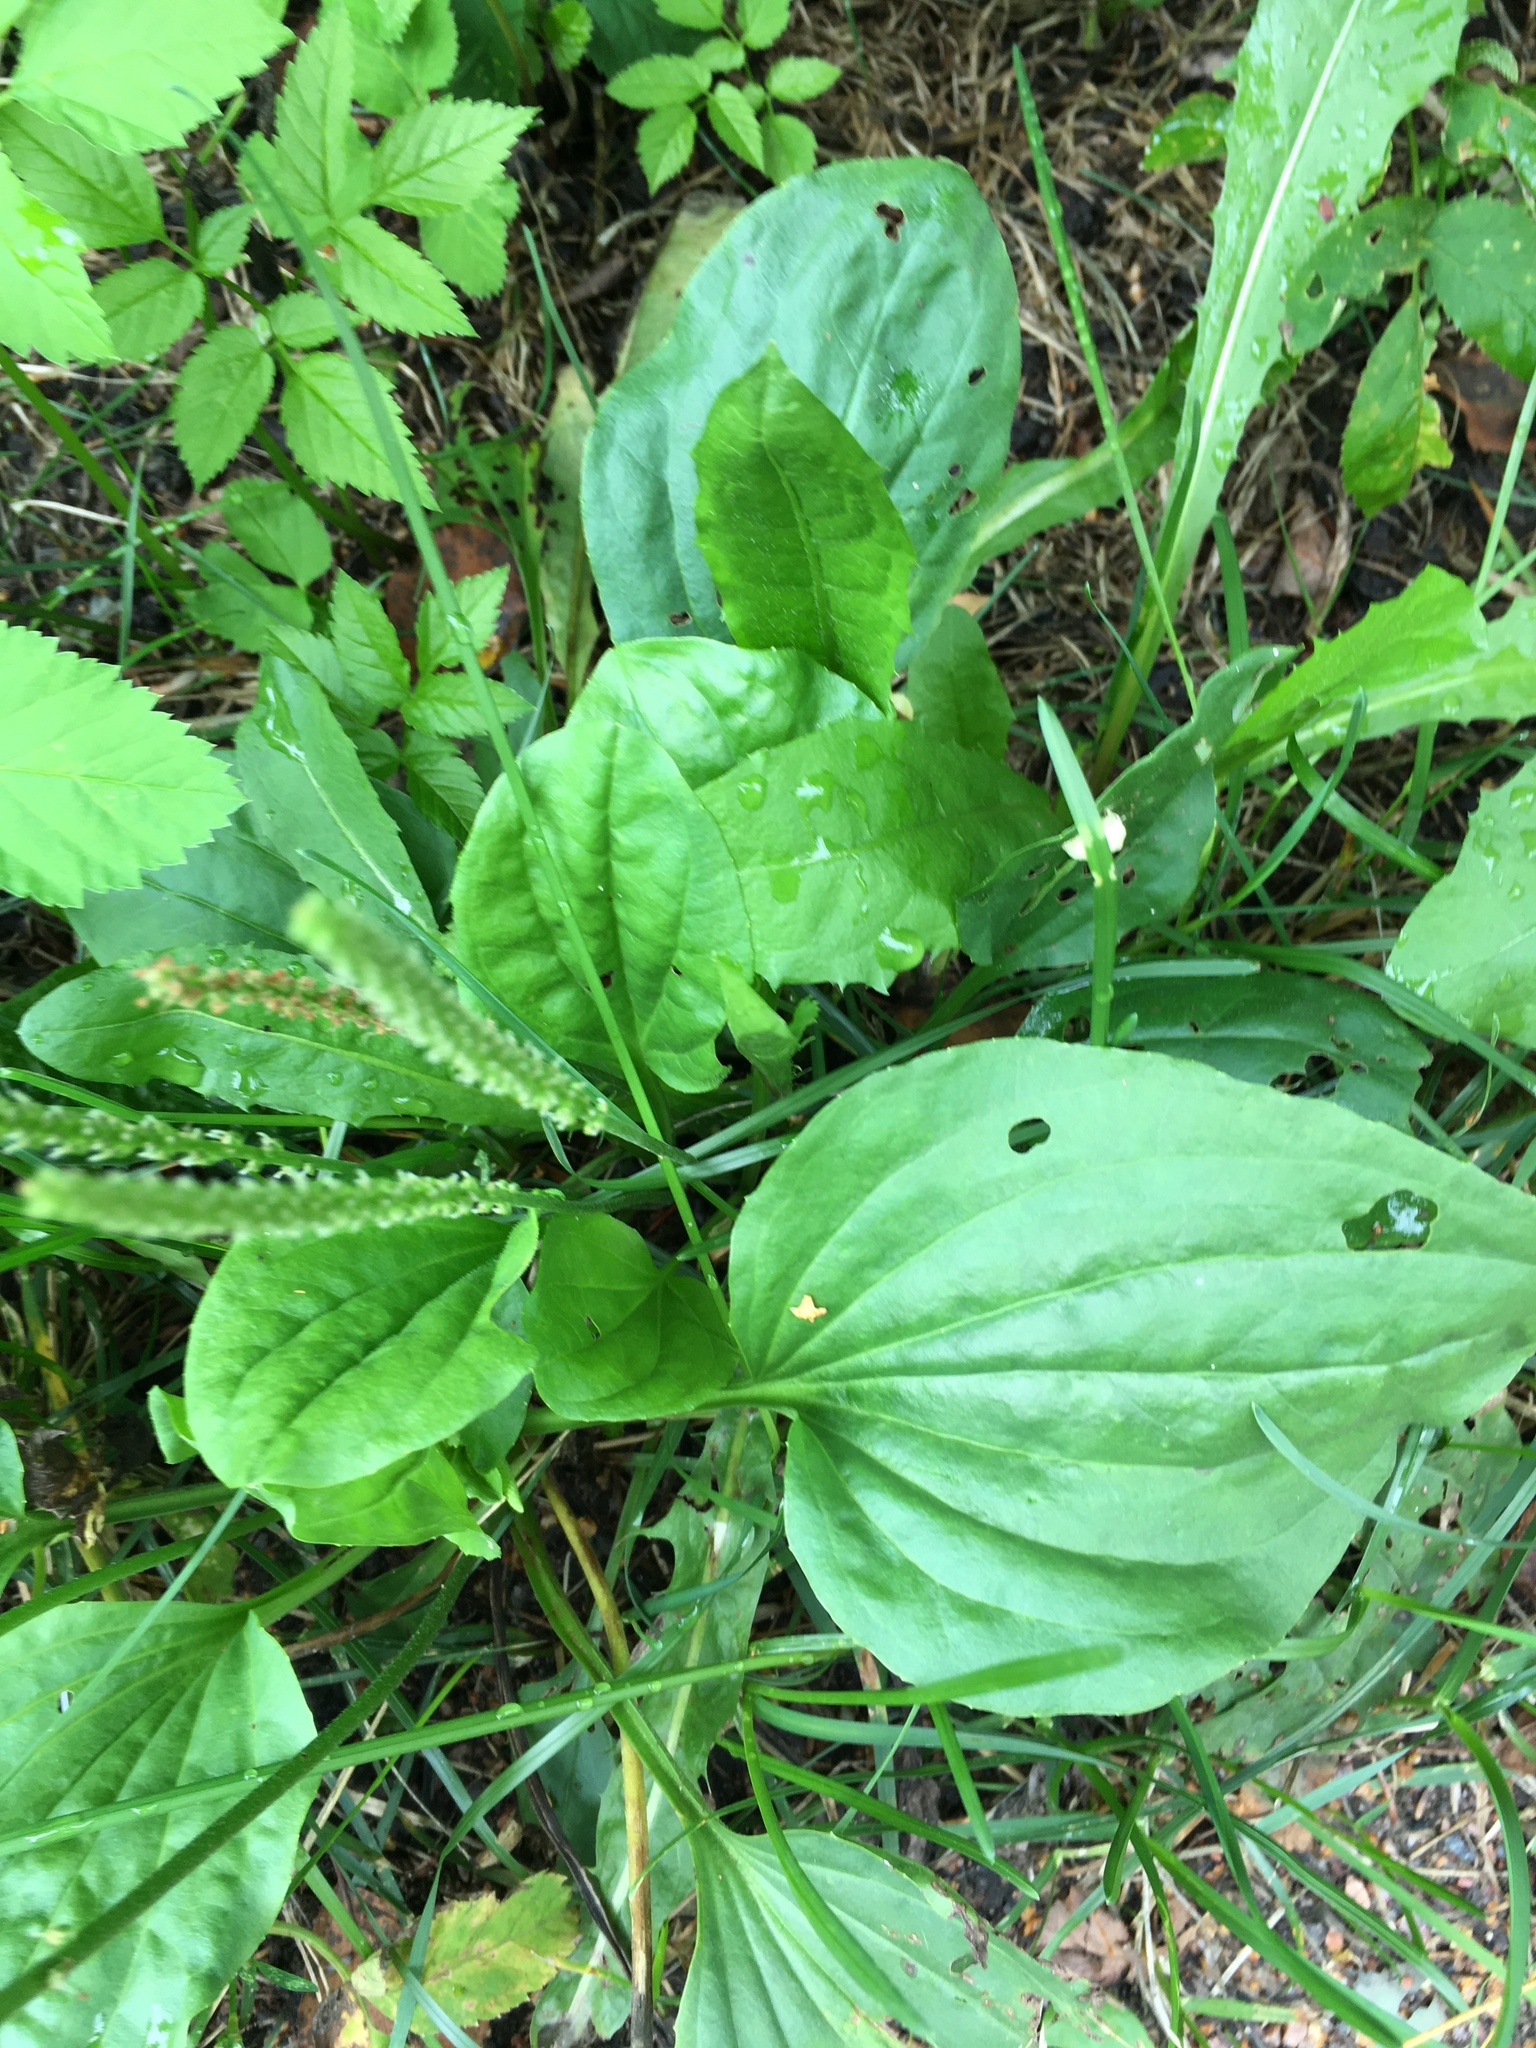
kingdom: Plantae
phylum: Tracheophyta
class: Magnoliopsida
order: Lamiales
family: Plantaginaceae
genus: Plantago
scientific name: Plantago major
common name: Common plantain
